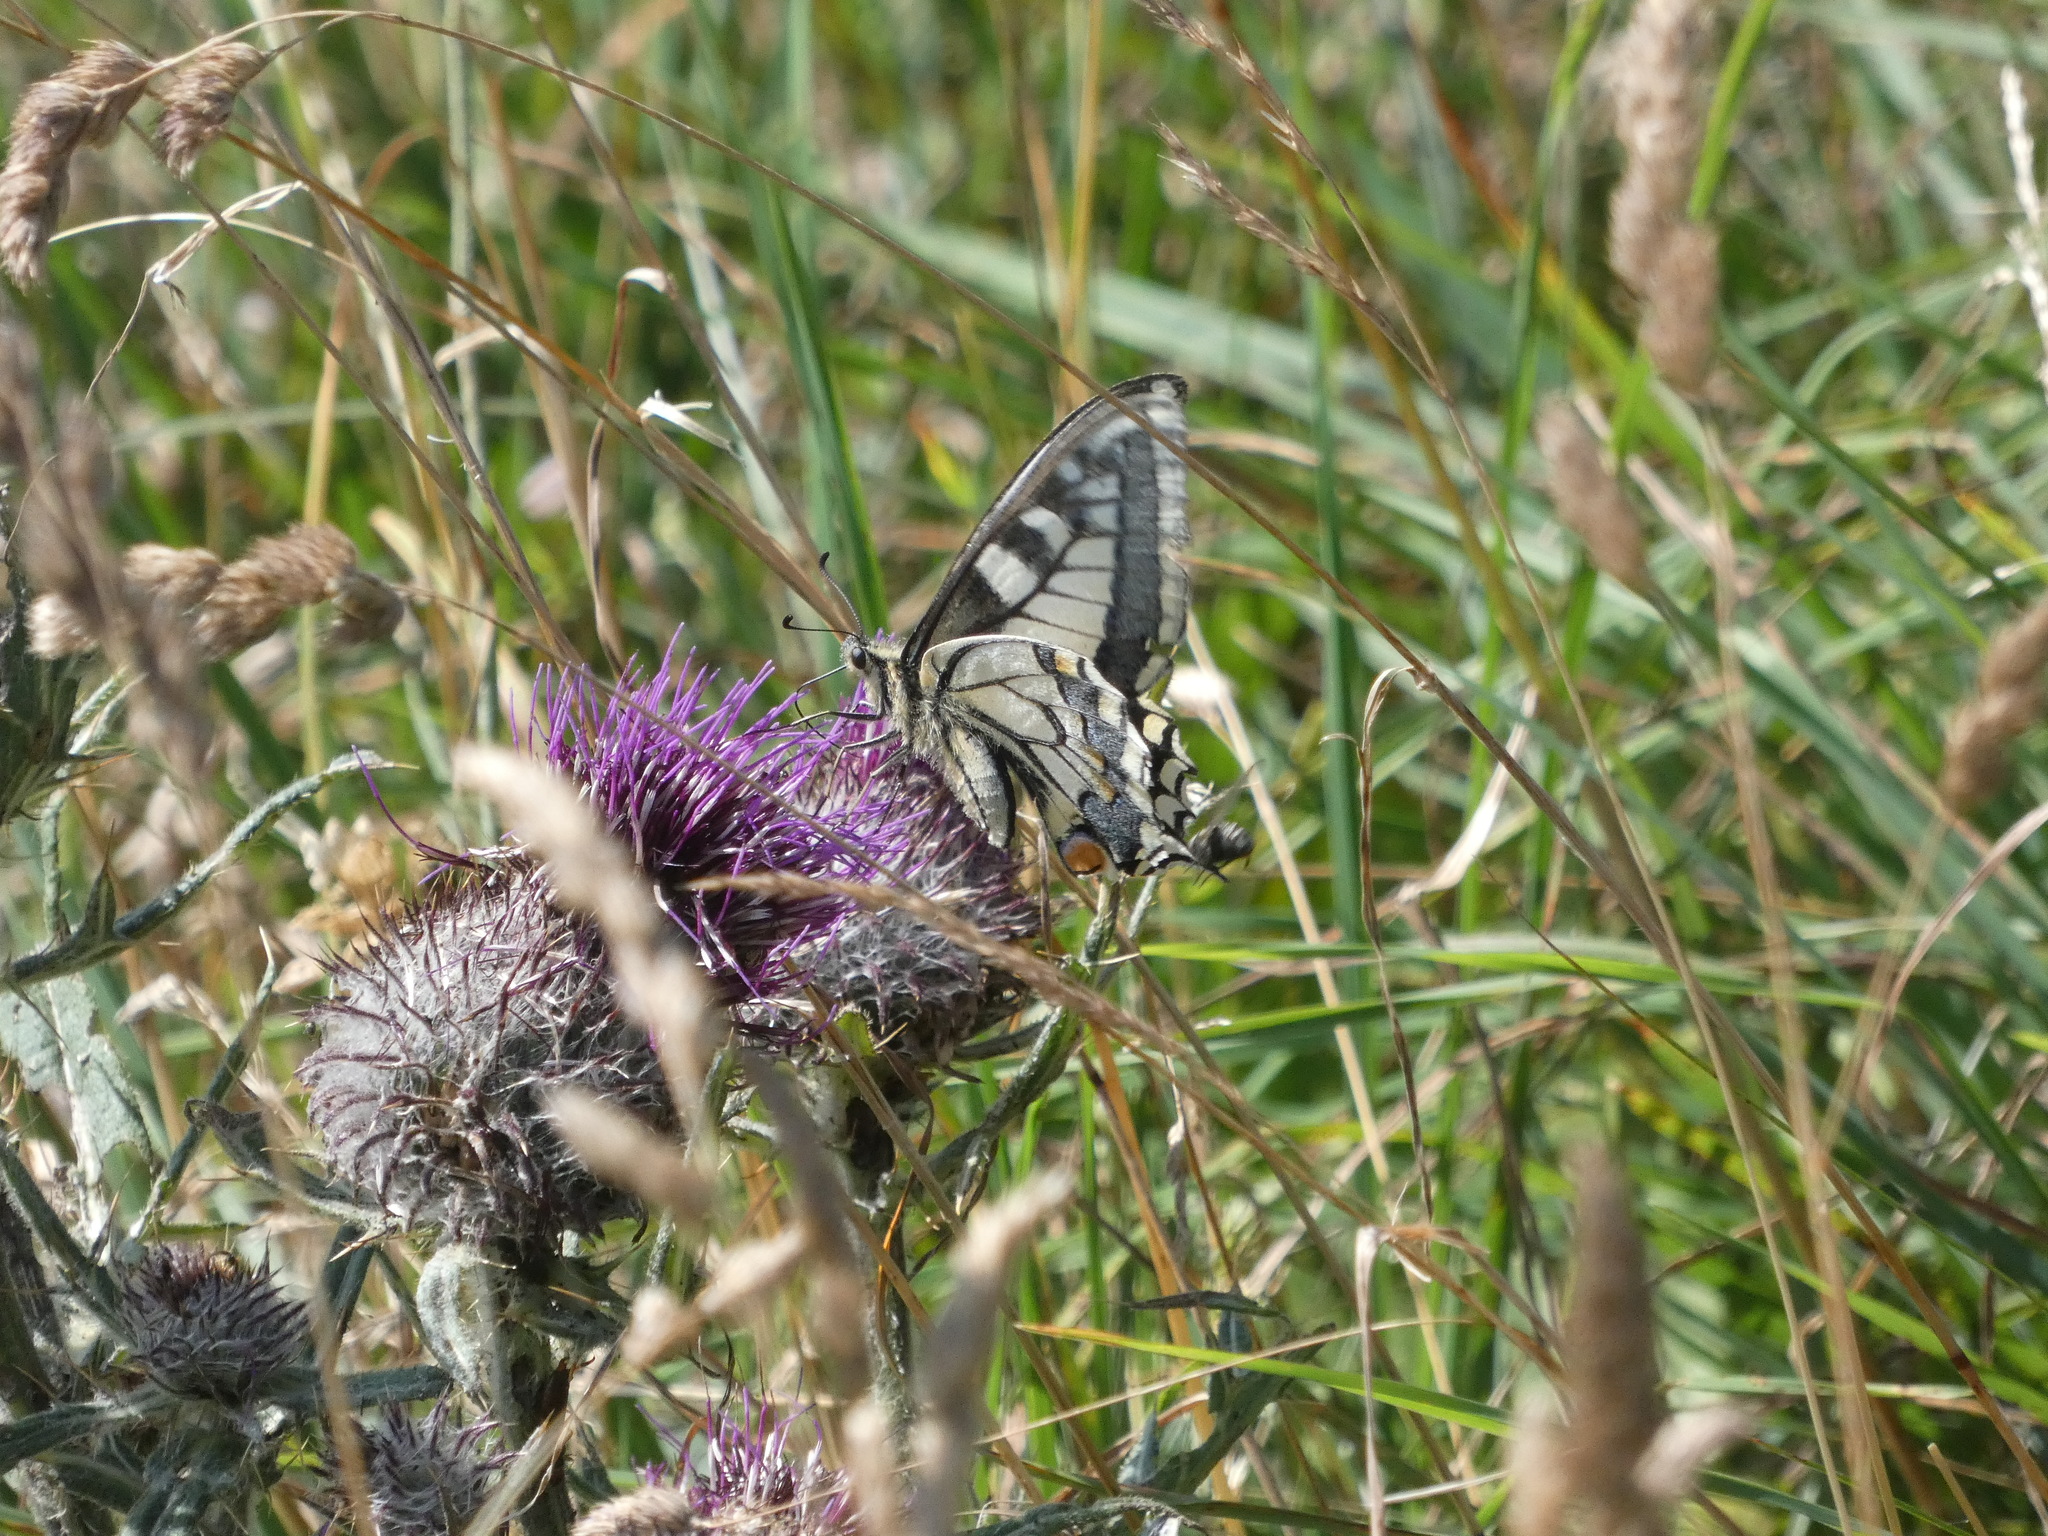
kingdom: Animalia
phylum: Arthropoda
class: Insecta
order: Lepidoptera
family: Papilionidae
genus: Papilio
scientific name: Papilio machaon
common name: Swallowtail
